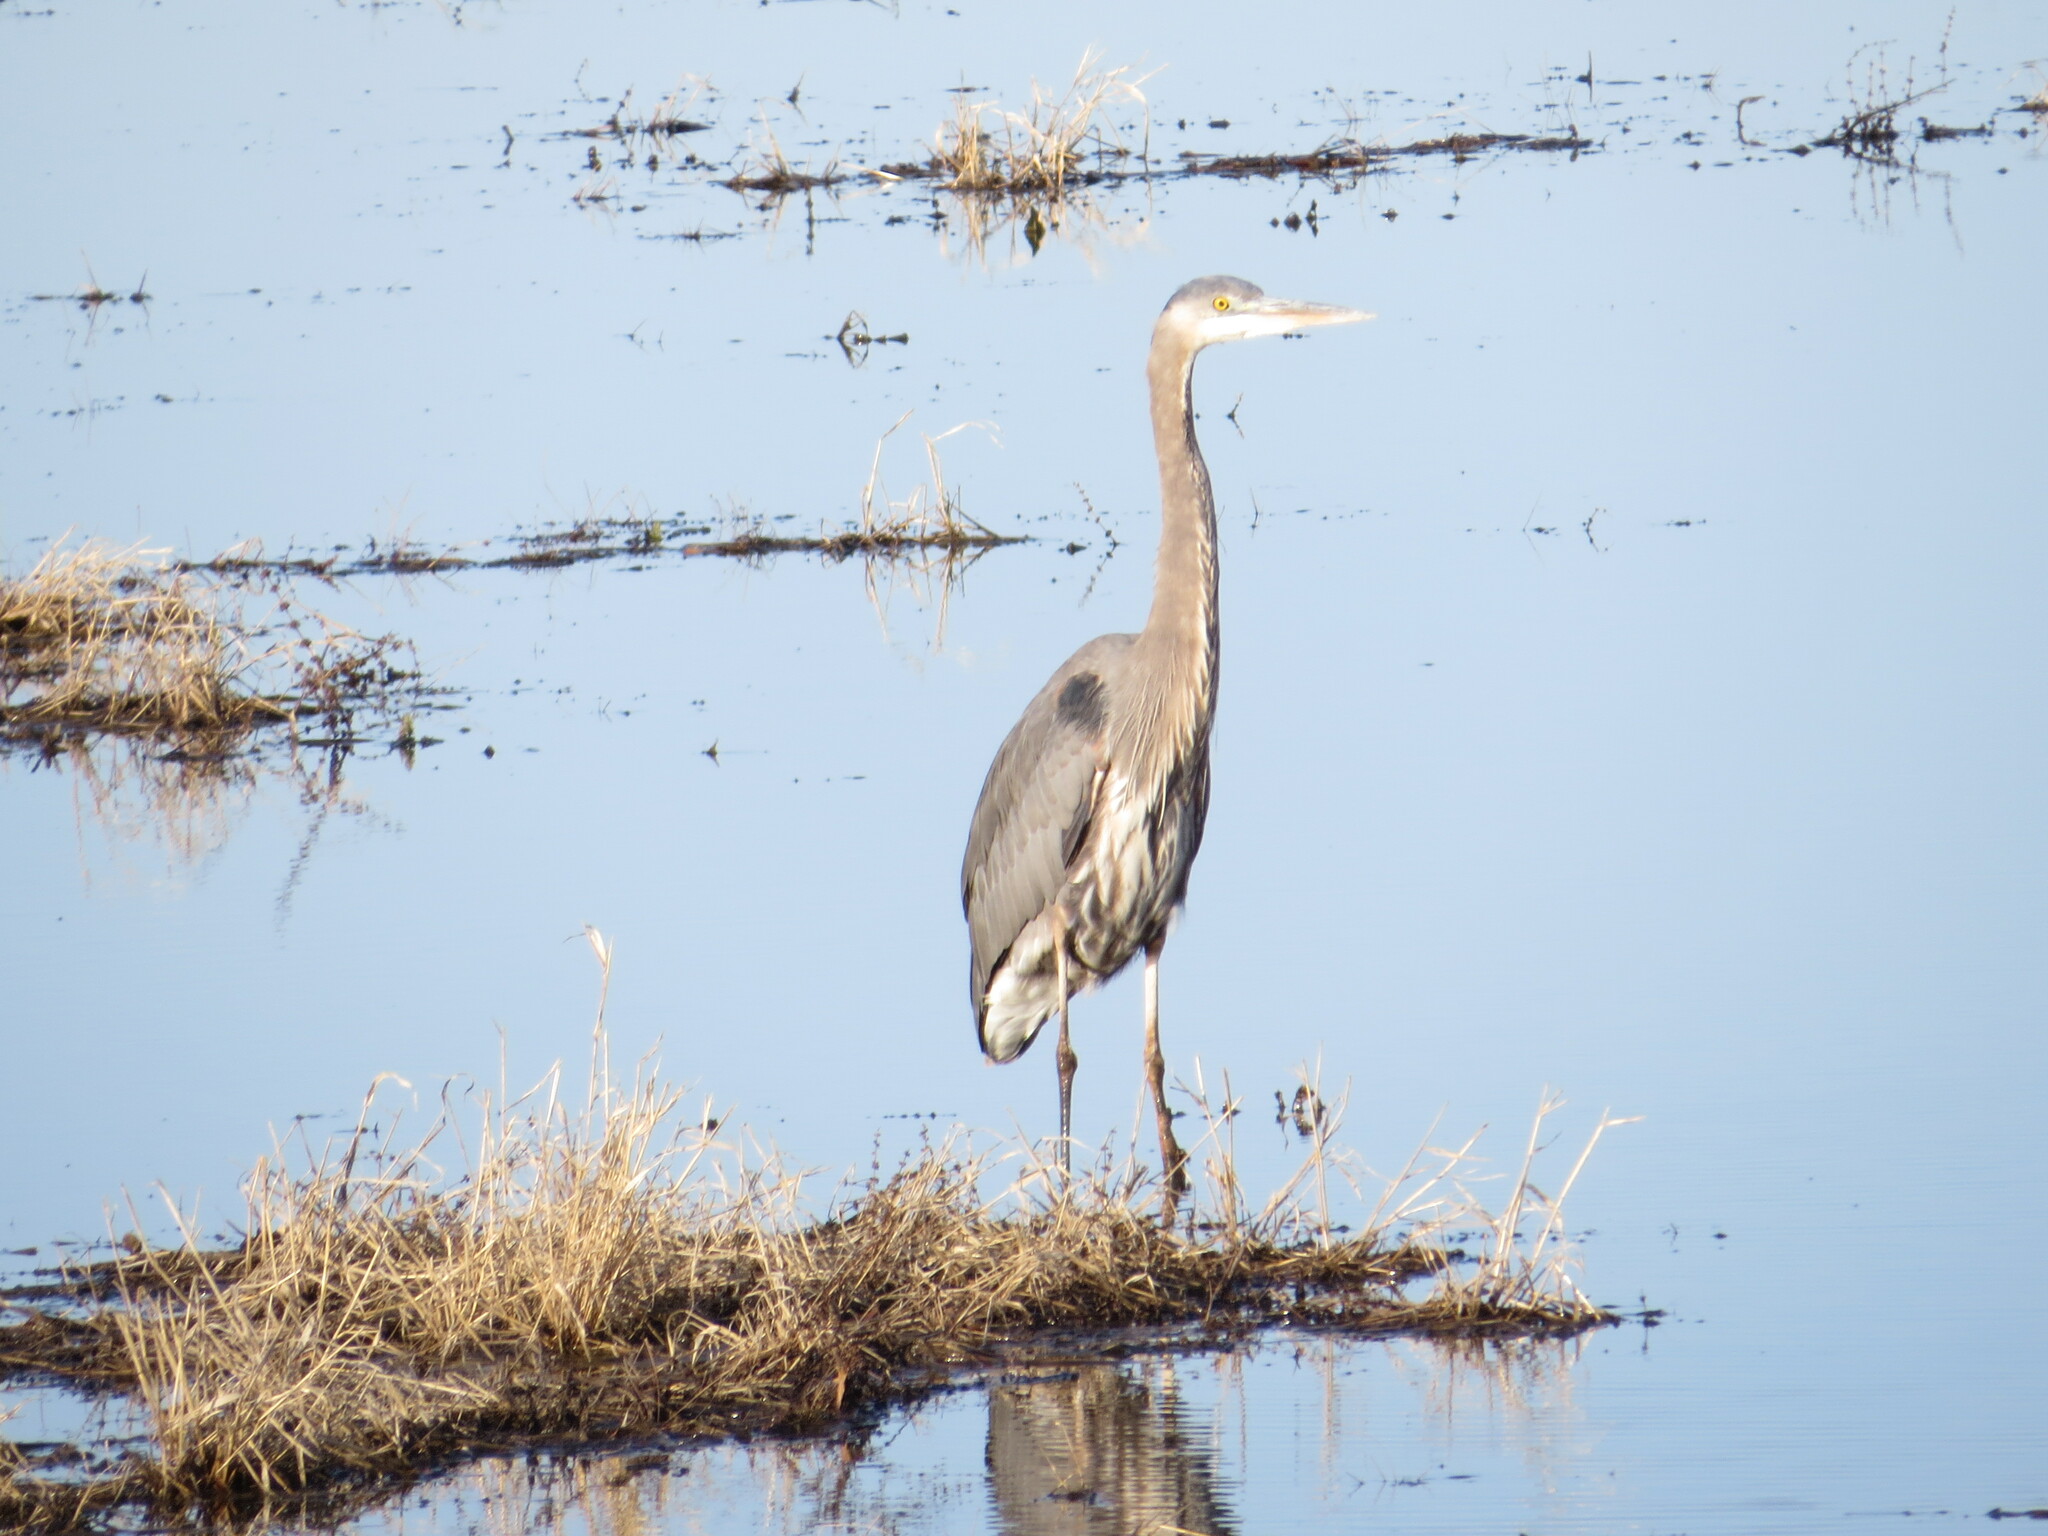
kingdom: Animalia
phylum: Chordata
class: Aves
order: Pelecaniformes
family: Ardeidae
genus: Ardea
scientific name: Ardea herodias
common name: Great blue heron
